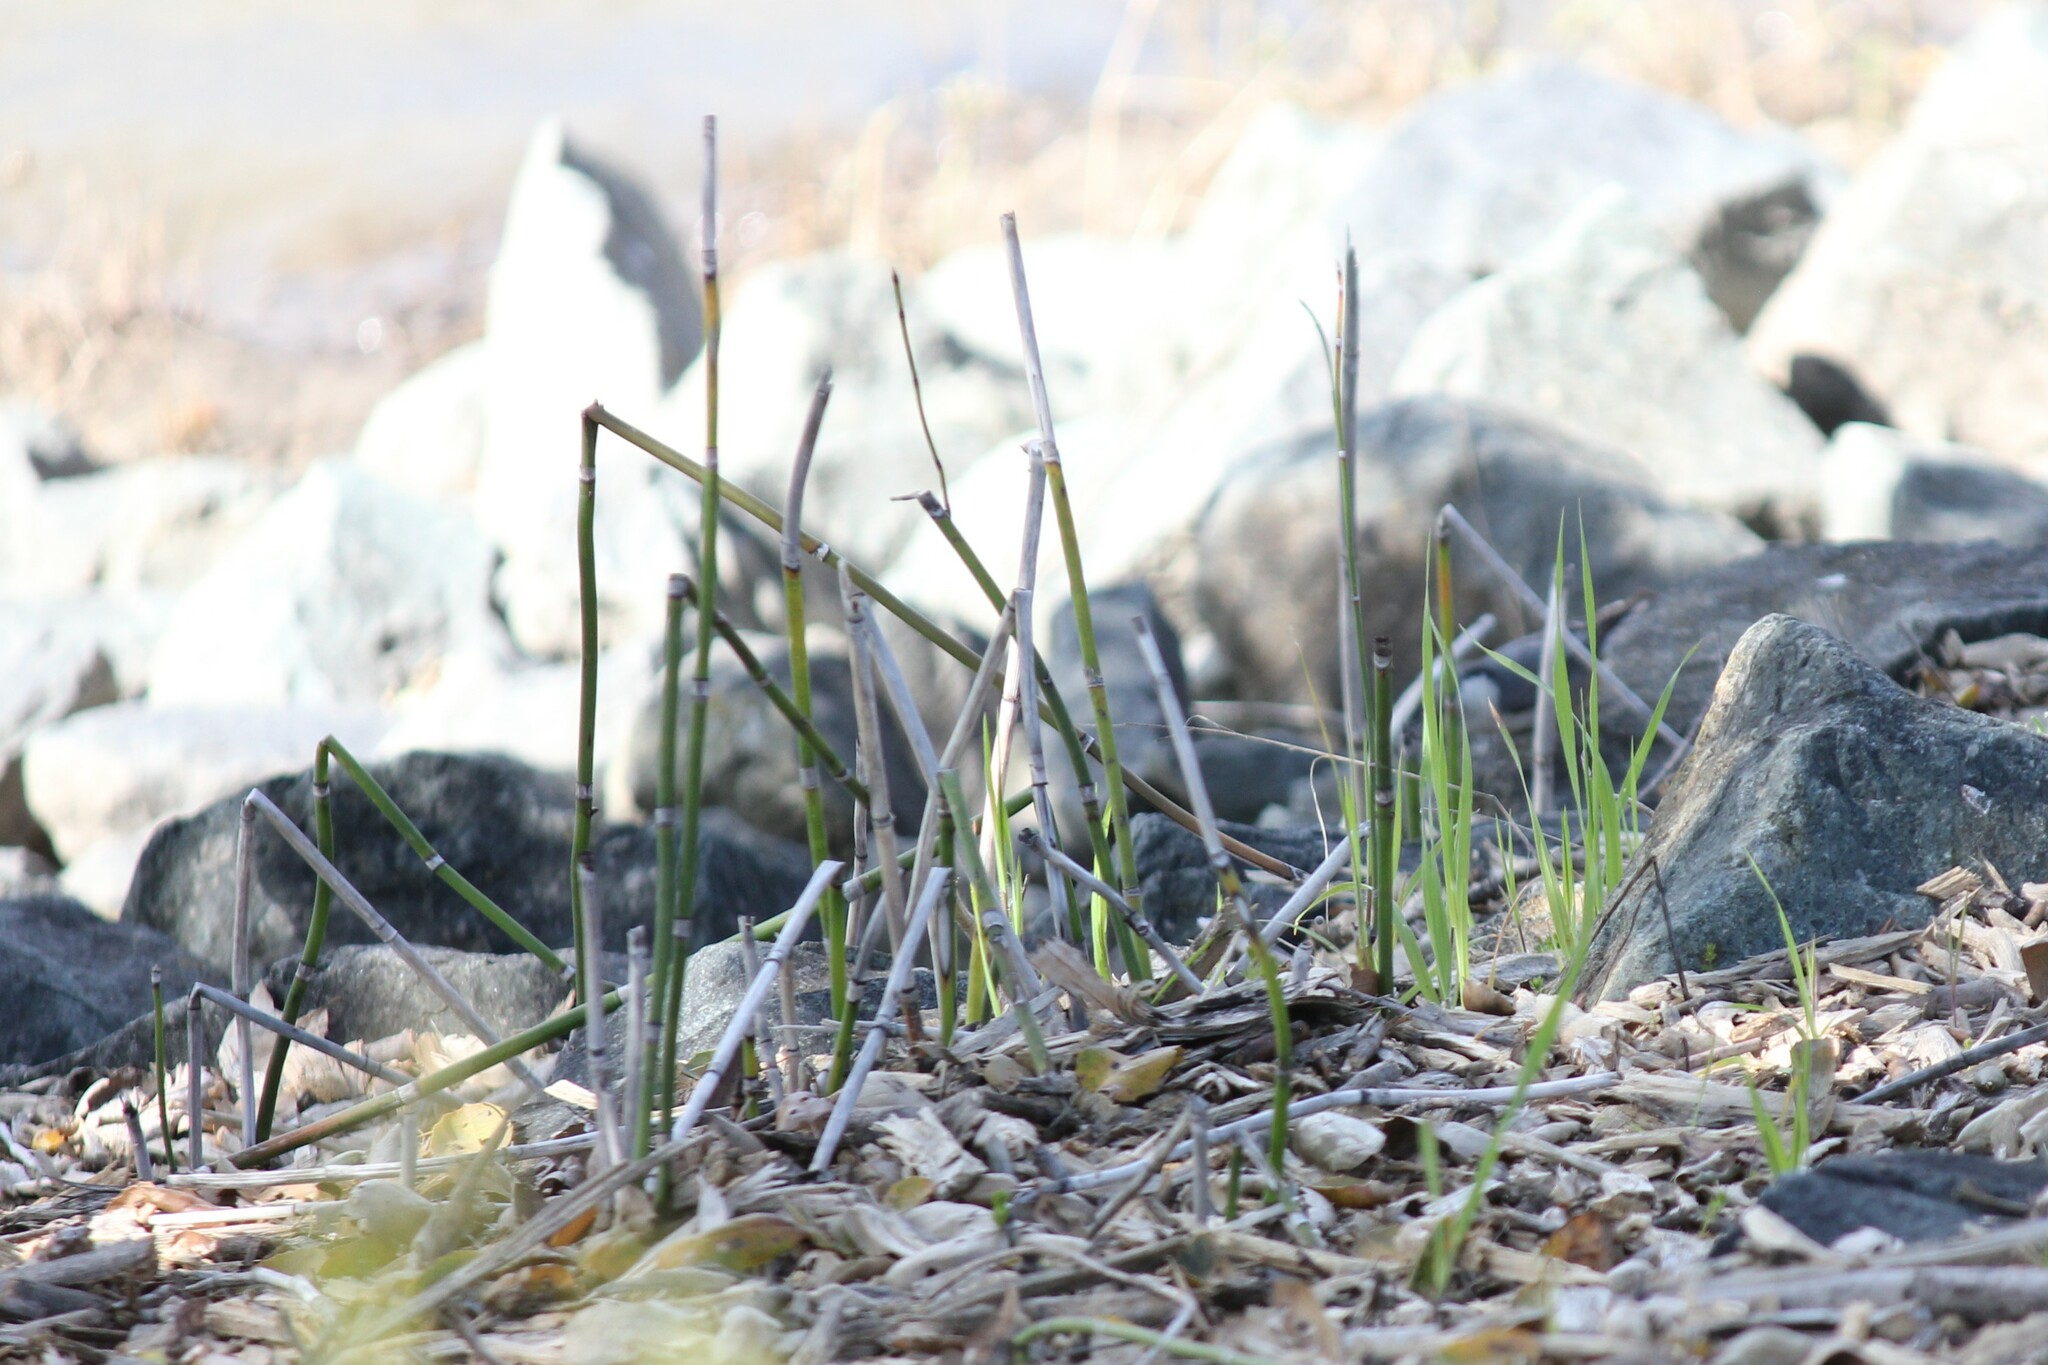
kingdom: Plantae
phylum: Tracheophyta
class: Polypodiopsida
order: Equisetales
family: Equisetaceae
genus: Equisetum
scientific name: Equisetum praealtum
